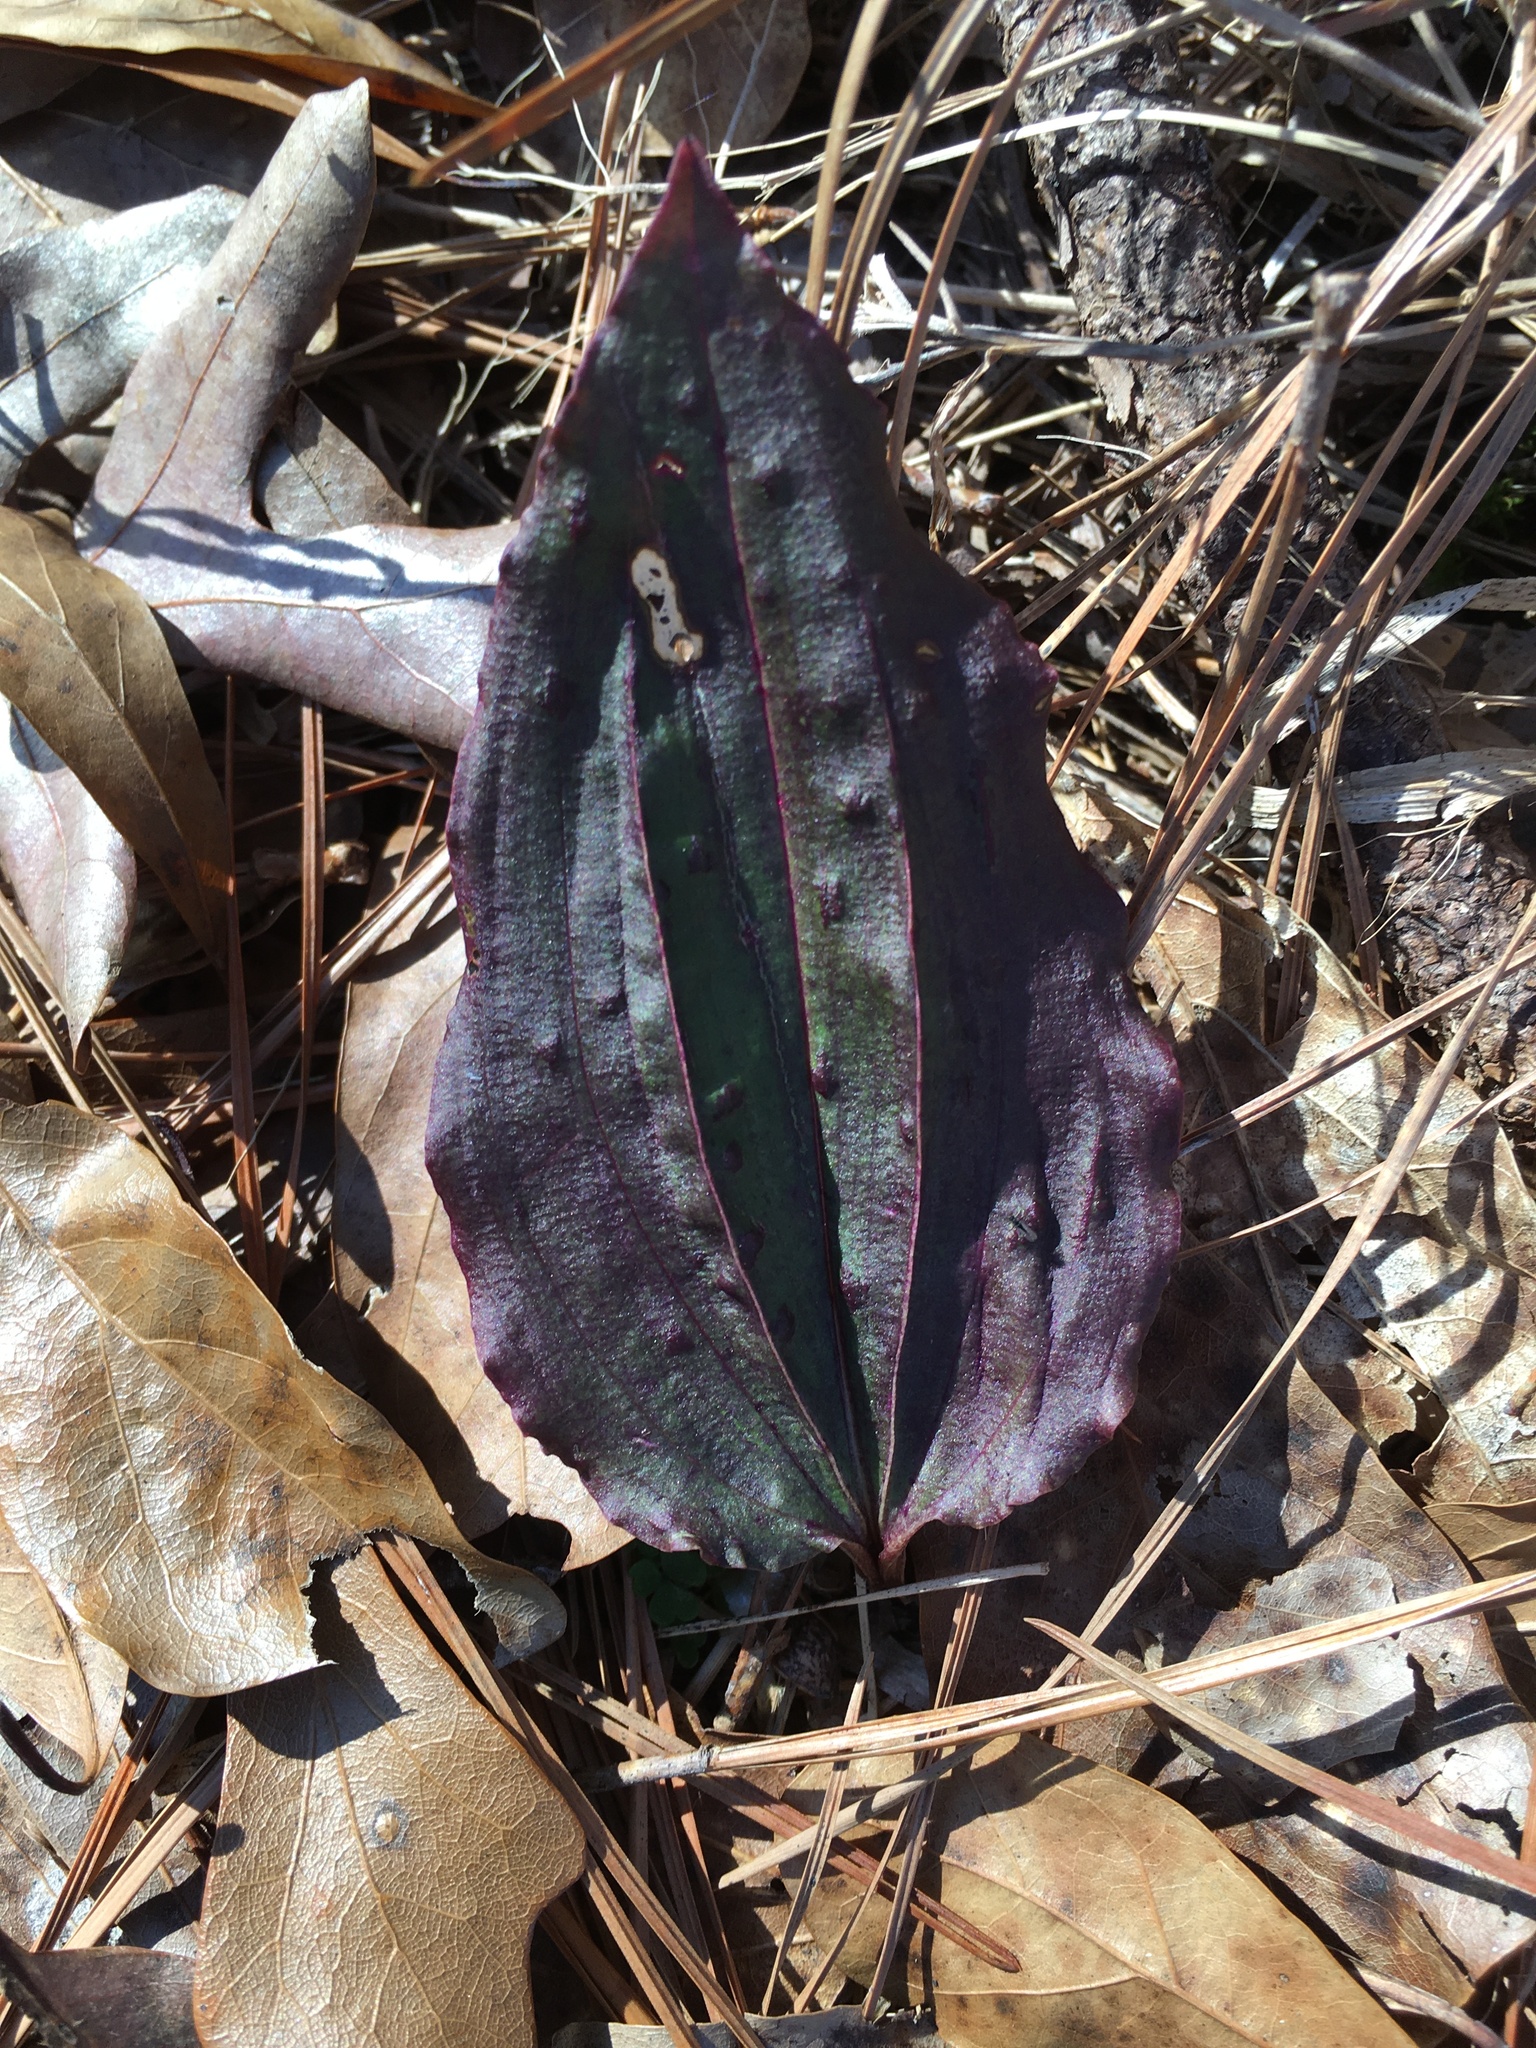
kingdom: Plantae
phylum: Tracheophyta
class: Liliopsida
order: Asparagales
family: Orchidaceae
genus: Tipularia
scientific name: Tipularia discolor
